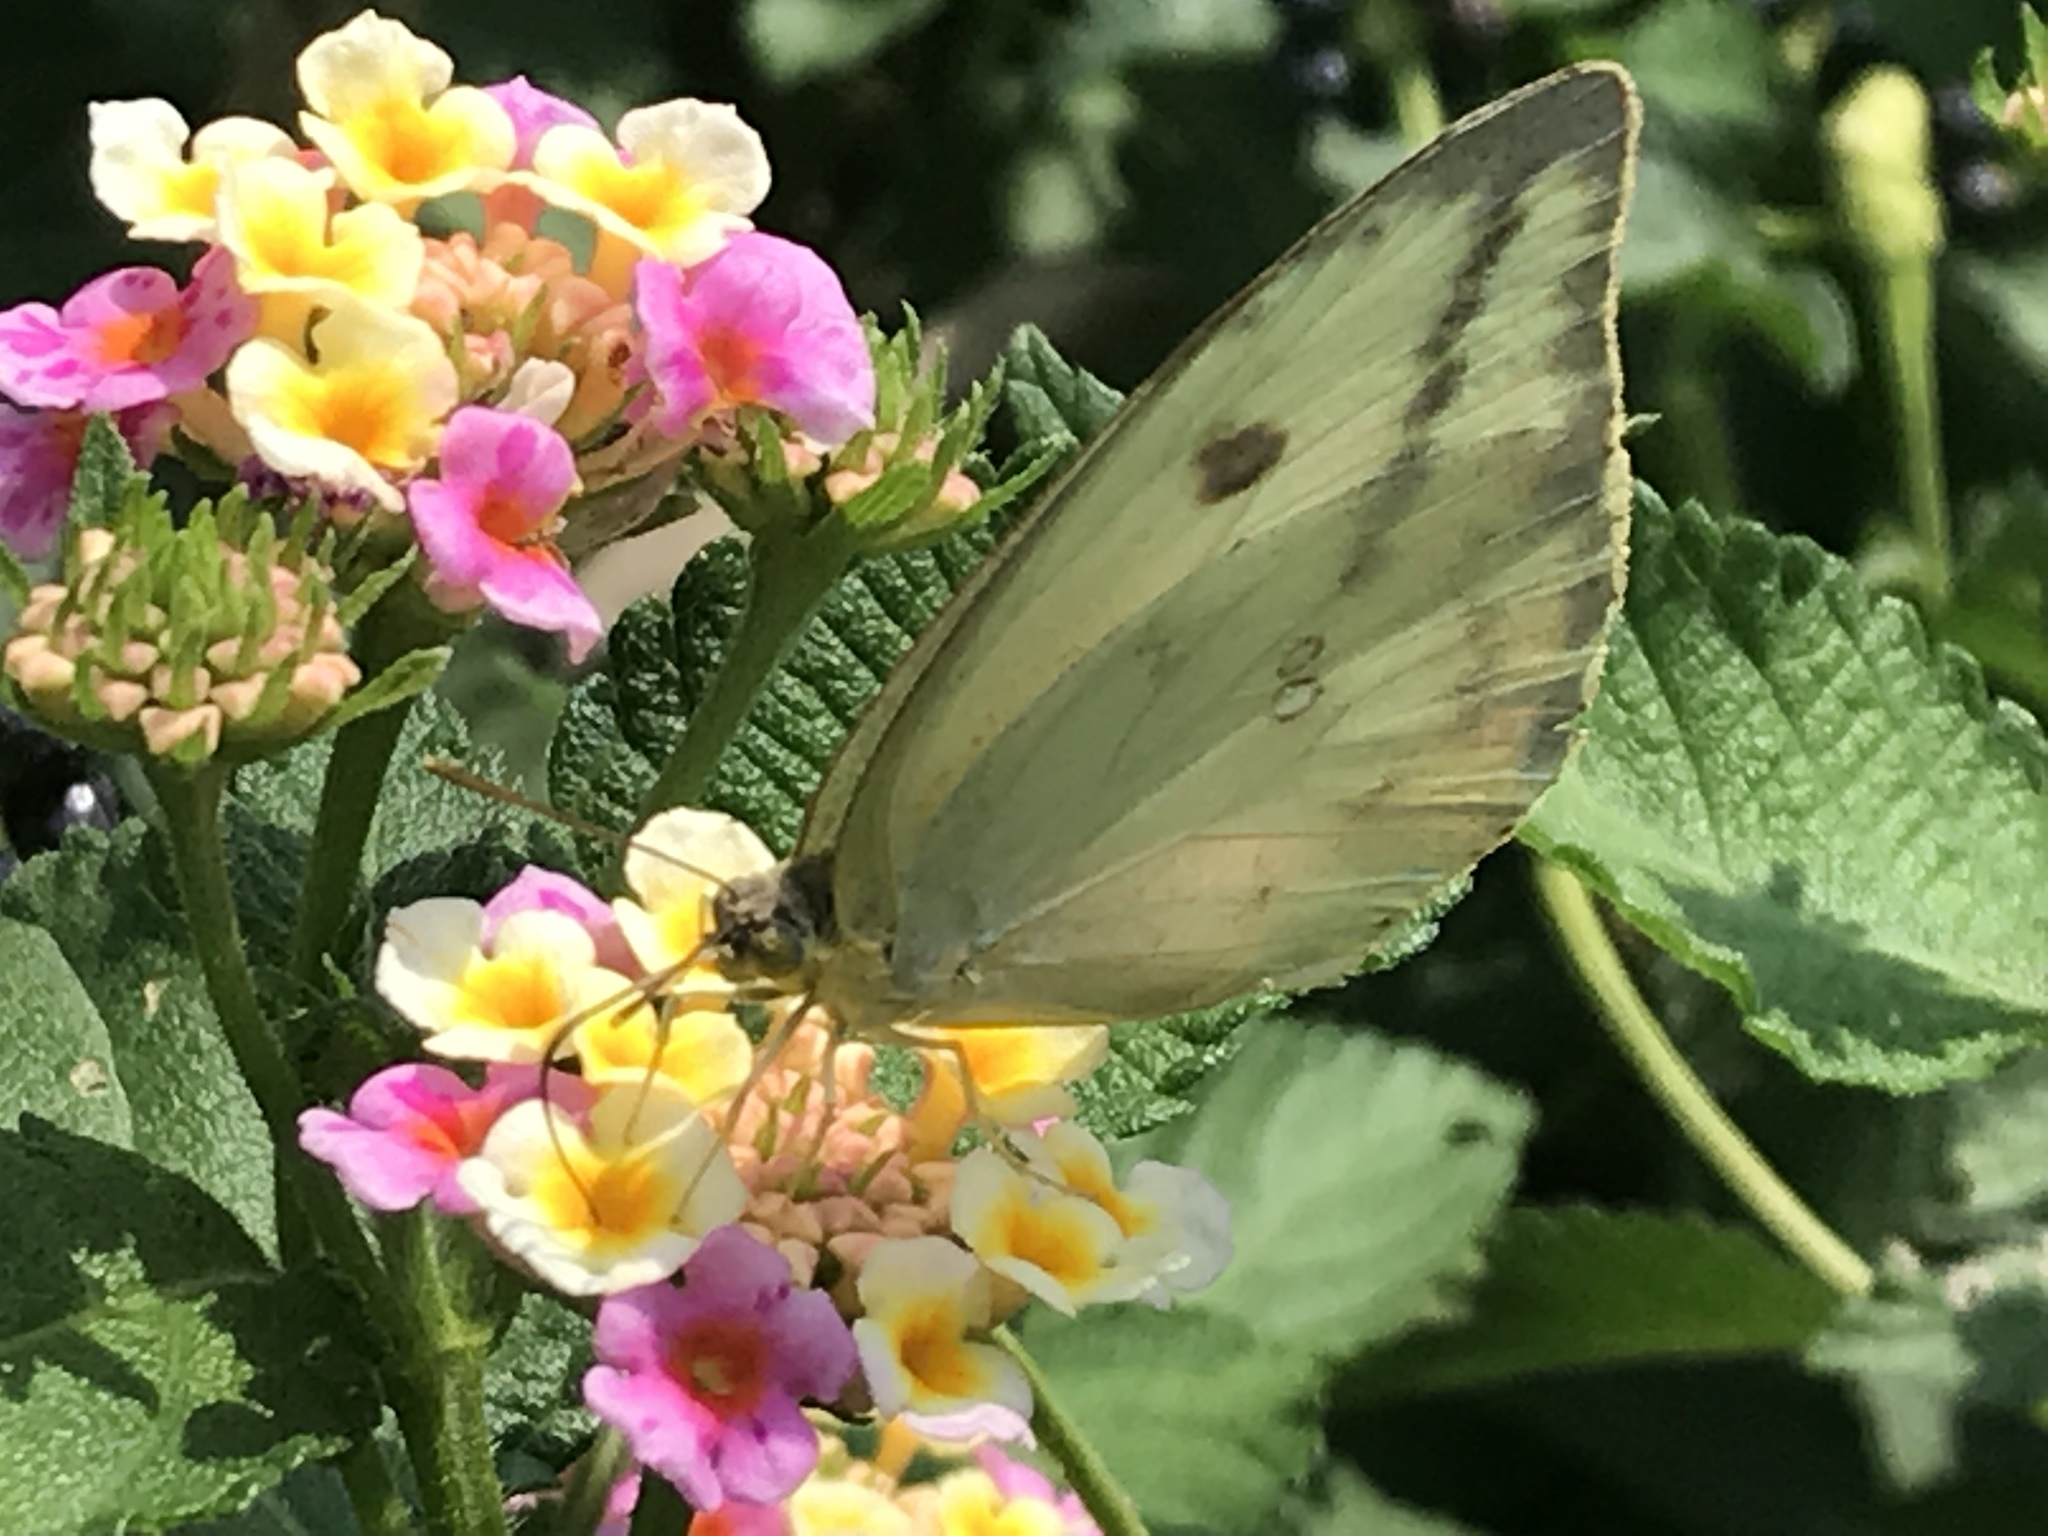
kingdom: Animalia
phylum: Arthropoda
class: Insecta
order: Lepidoptera
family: Pieridae
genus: Phoebis
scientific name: Phoebis agarithe
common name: Large orange sulphur
